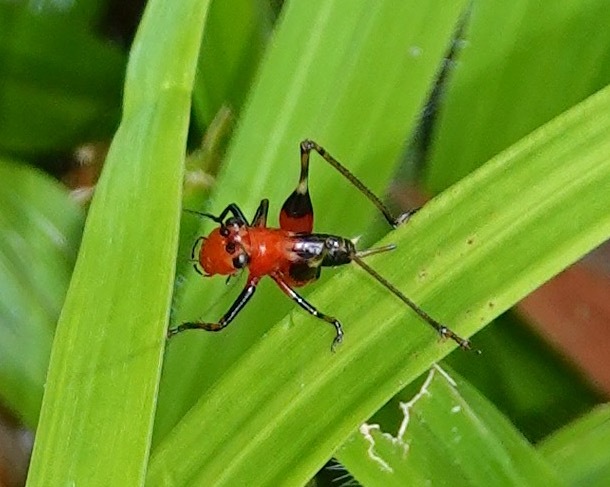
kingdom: Animalia
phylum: Arthropoda
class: Insecta
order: Orthoptera
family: Tettigoniidae
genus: Conocephalus
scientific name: Conocephalus melaenus
